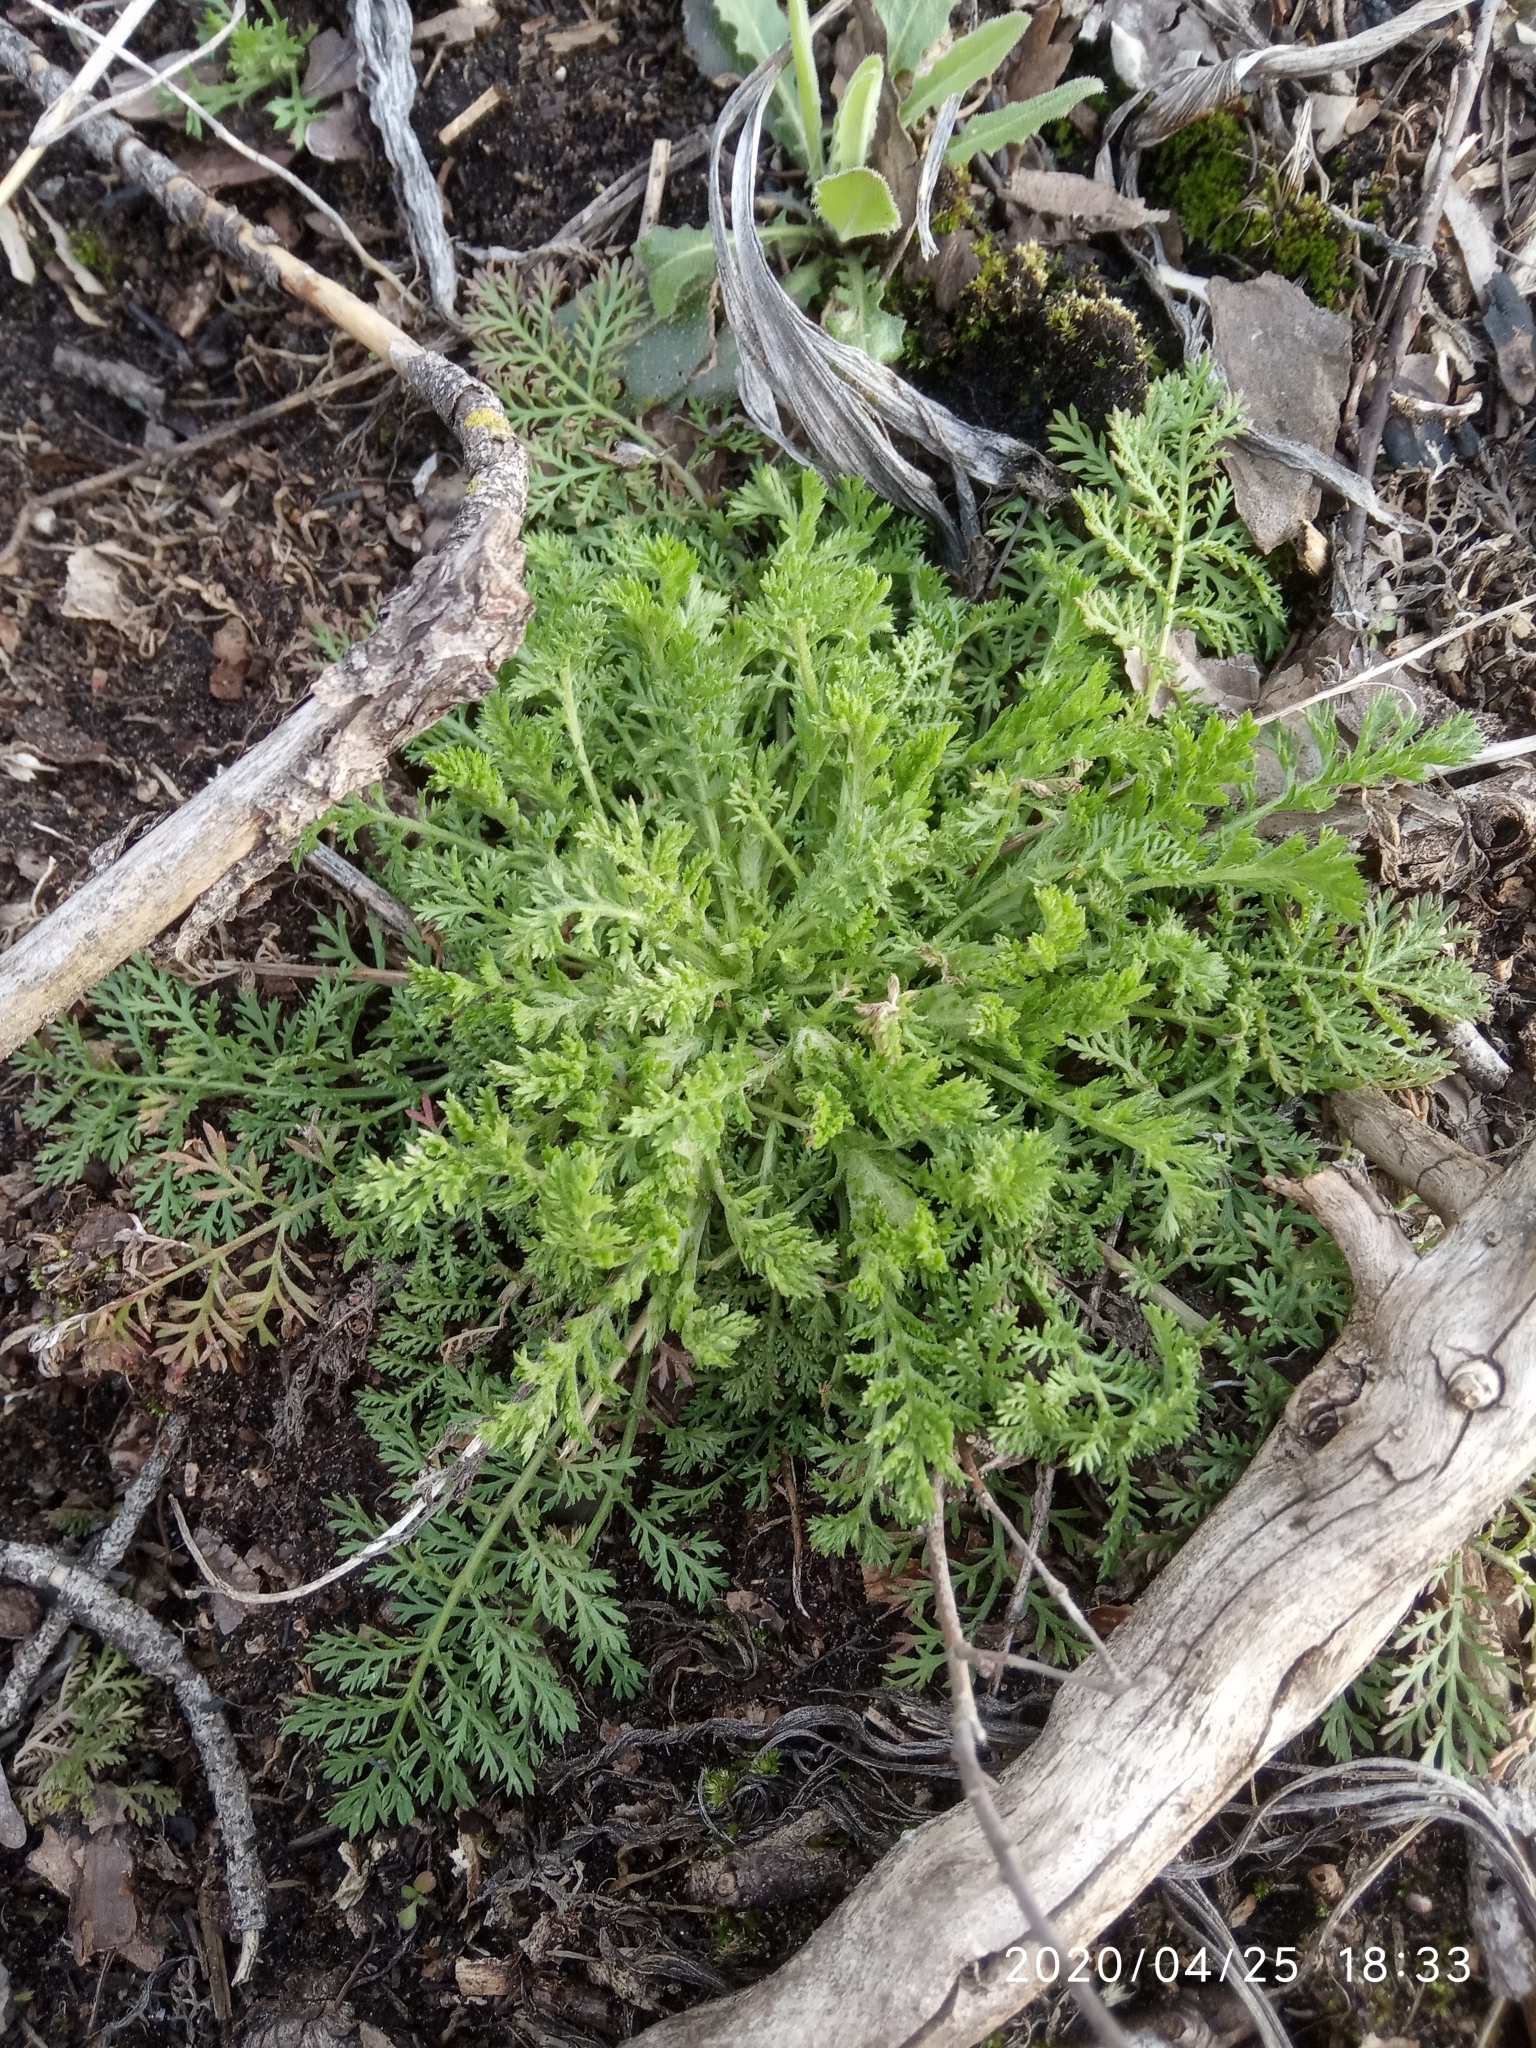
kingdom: Plantae
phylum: Tracheophyta
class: Magnoliopsida
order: Asterales
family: Asteraceae
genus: Achillea
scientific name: Achillea nobilis
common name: Noble yarrow
